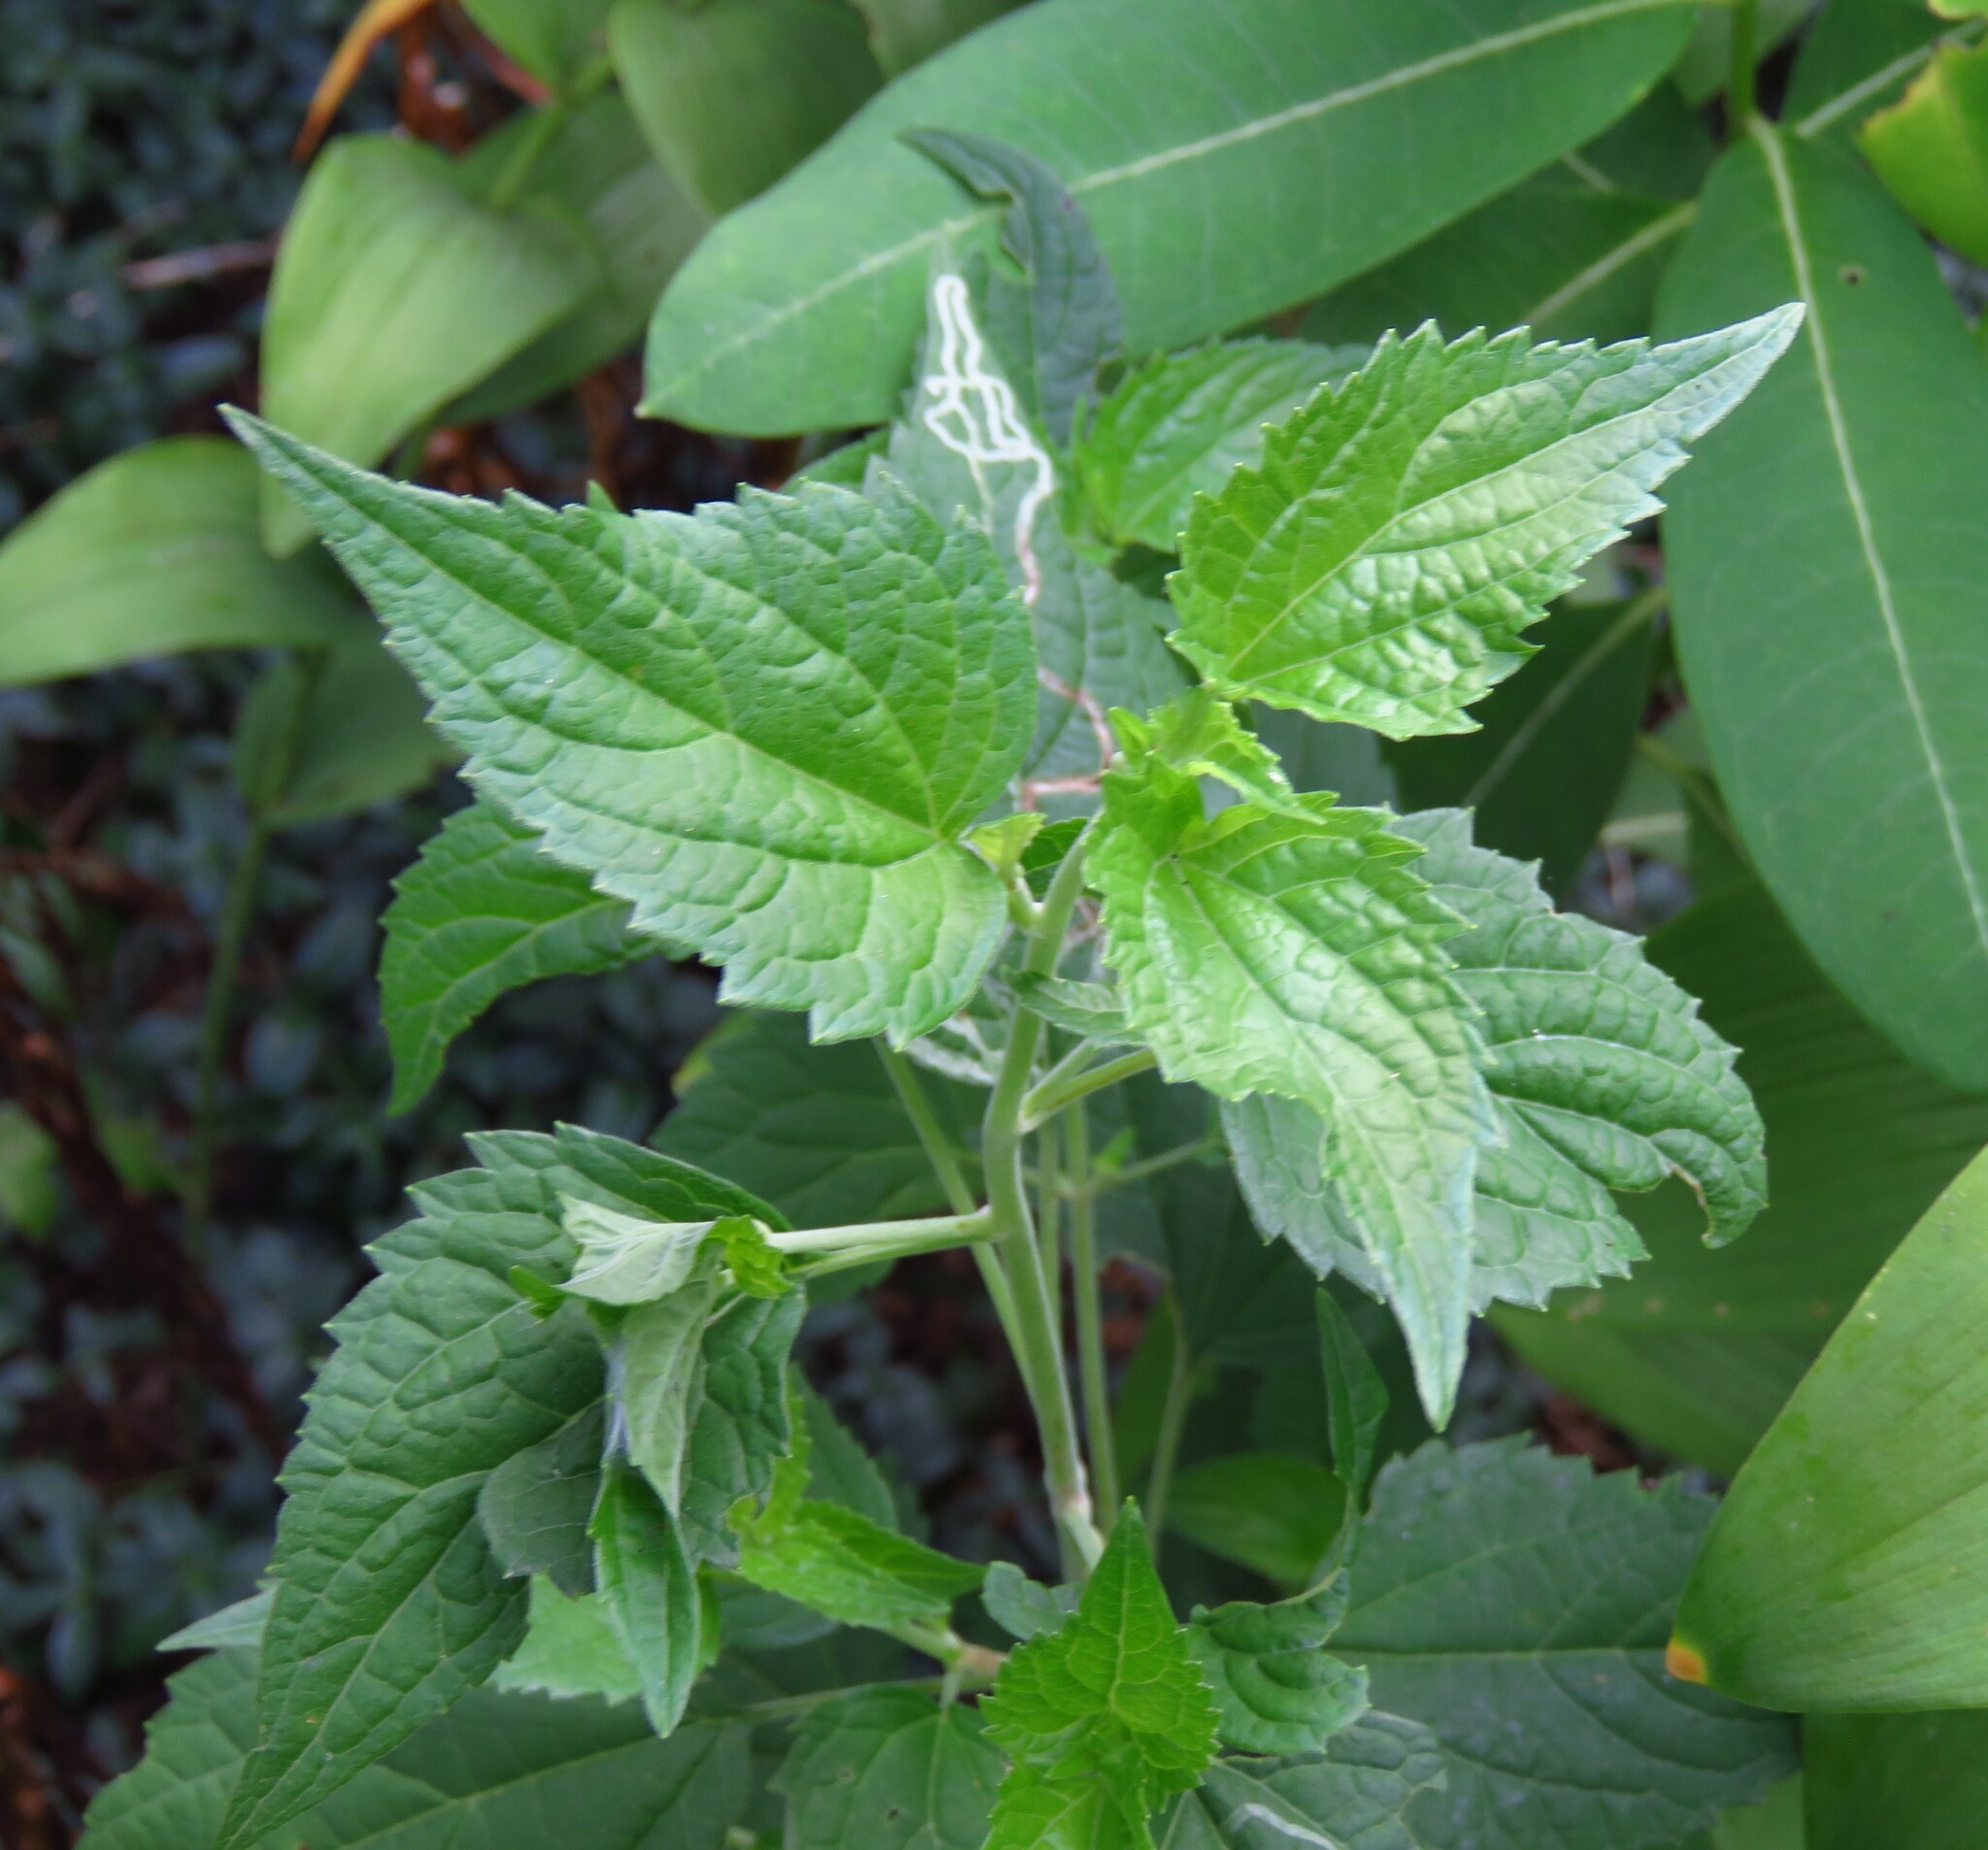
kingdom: Plantae
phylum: Tracheophyta
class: Magnoliopsida
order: Asterales
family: Asteraceae
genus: Ageratina
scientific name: Ageratina altissima
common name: White snakeroot
